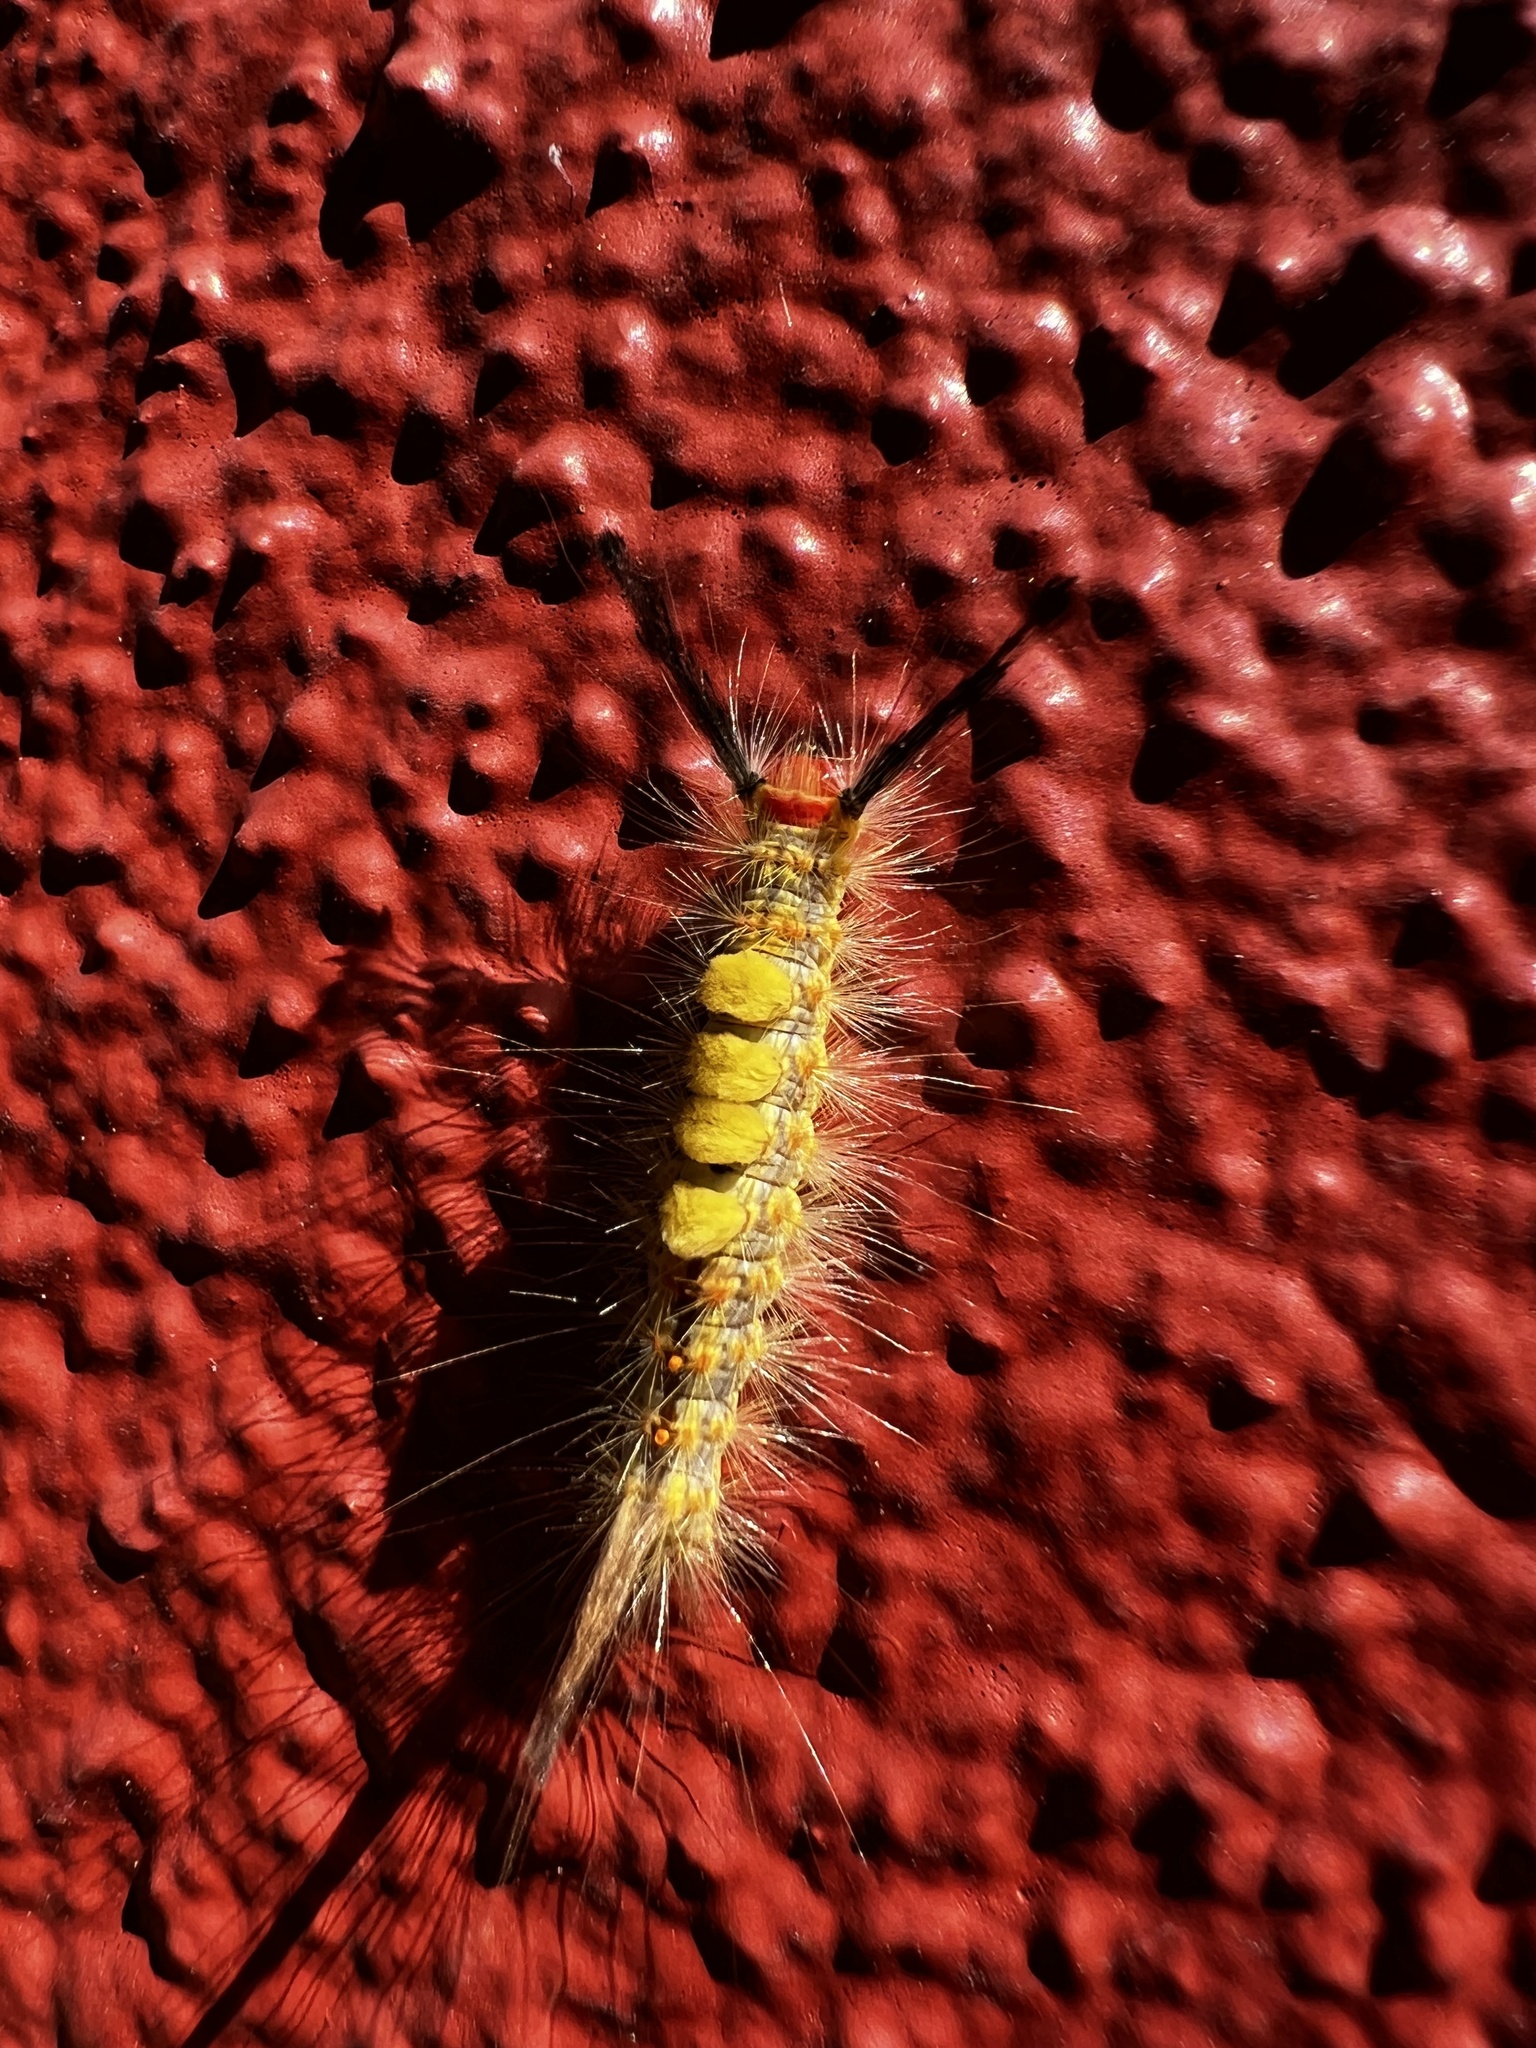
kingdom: Animalia
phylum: Arthropoda
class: Insecta
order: Lepidoptera
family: Erebidae
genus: Orgyia
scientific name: Orgyia detrita
